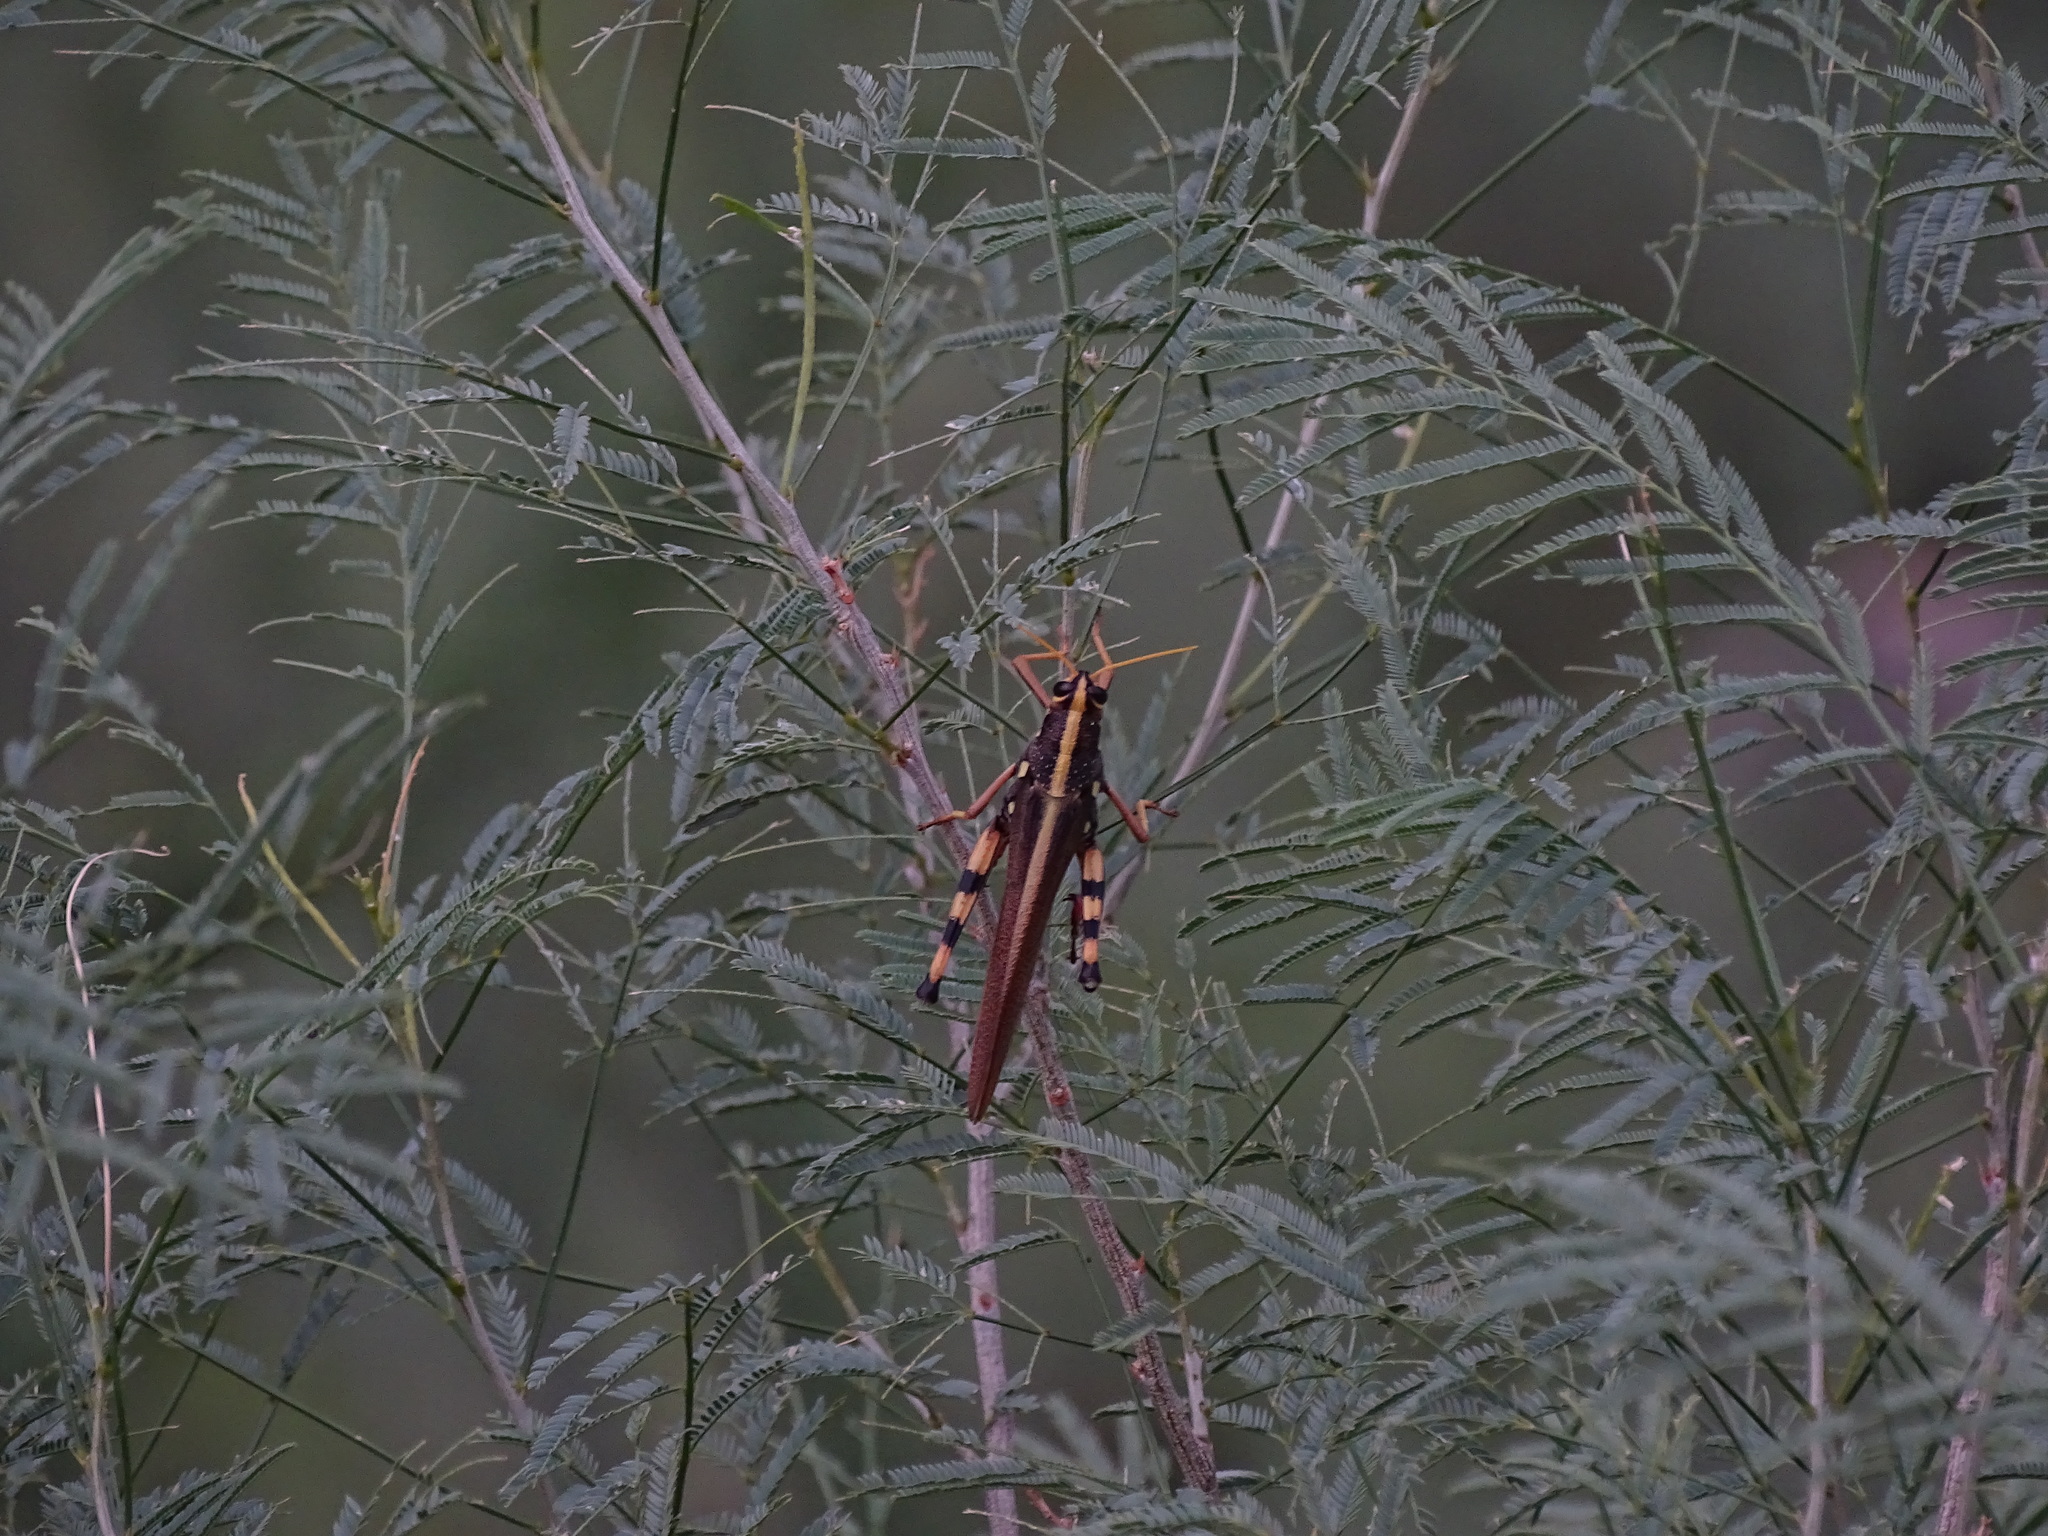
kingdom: Animalia
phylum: Arthropoda
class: Insecta
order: Orthoptera
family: Acrididae
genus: Schistocerca
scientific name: Schistocerca albolineata
